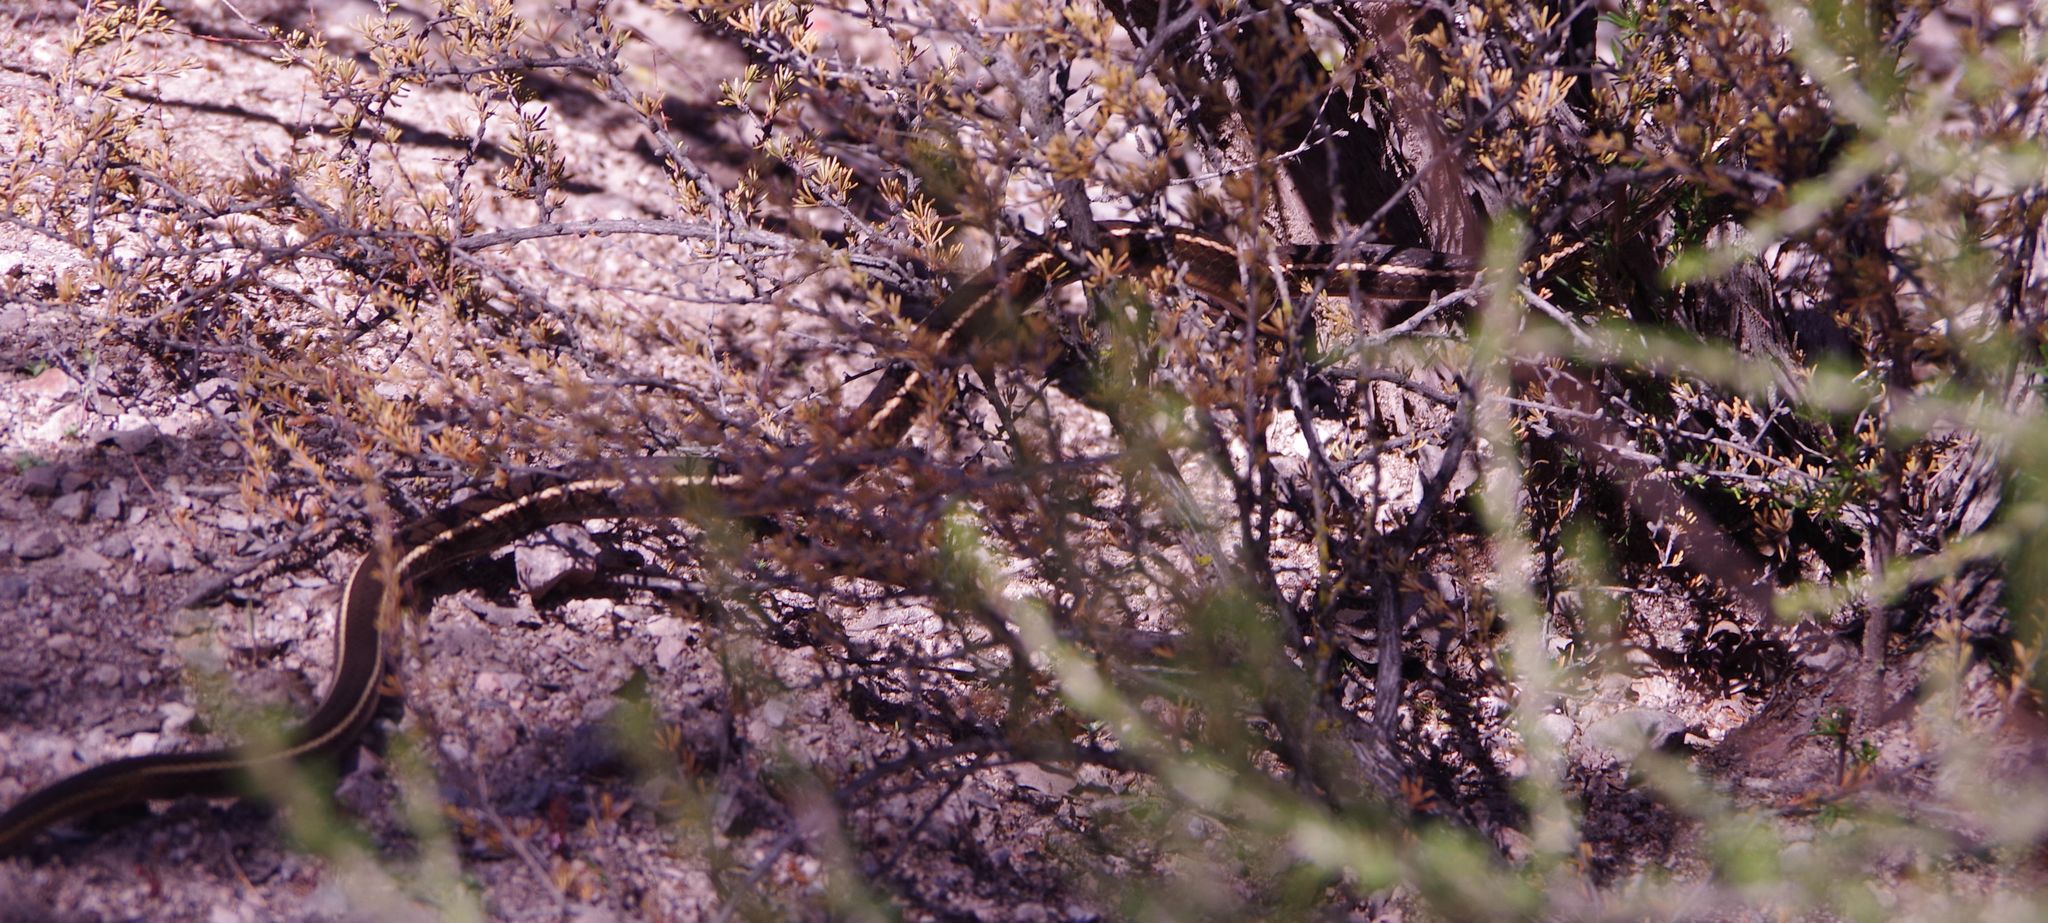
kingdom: Animalia
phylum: Chordata
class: Squamata
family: Colubridae
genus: Masticophis
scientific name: Masticophis lateralis
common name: Striped racer
